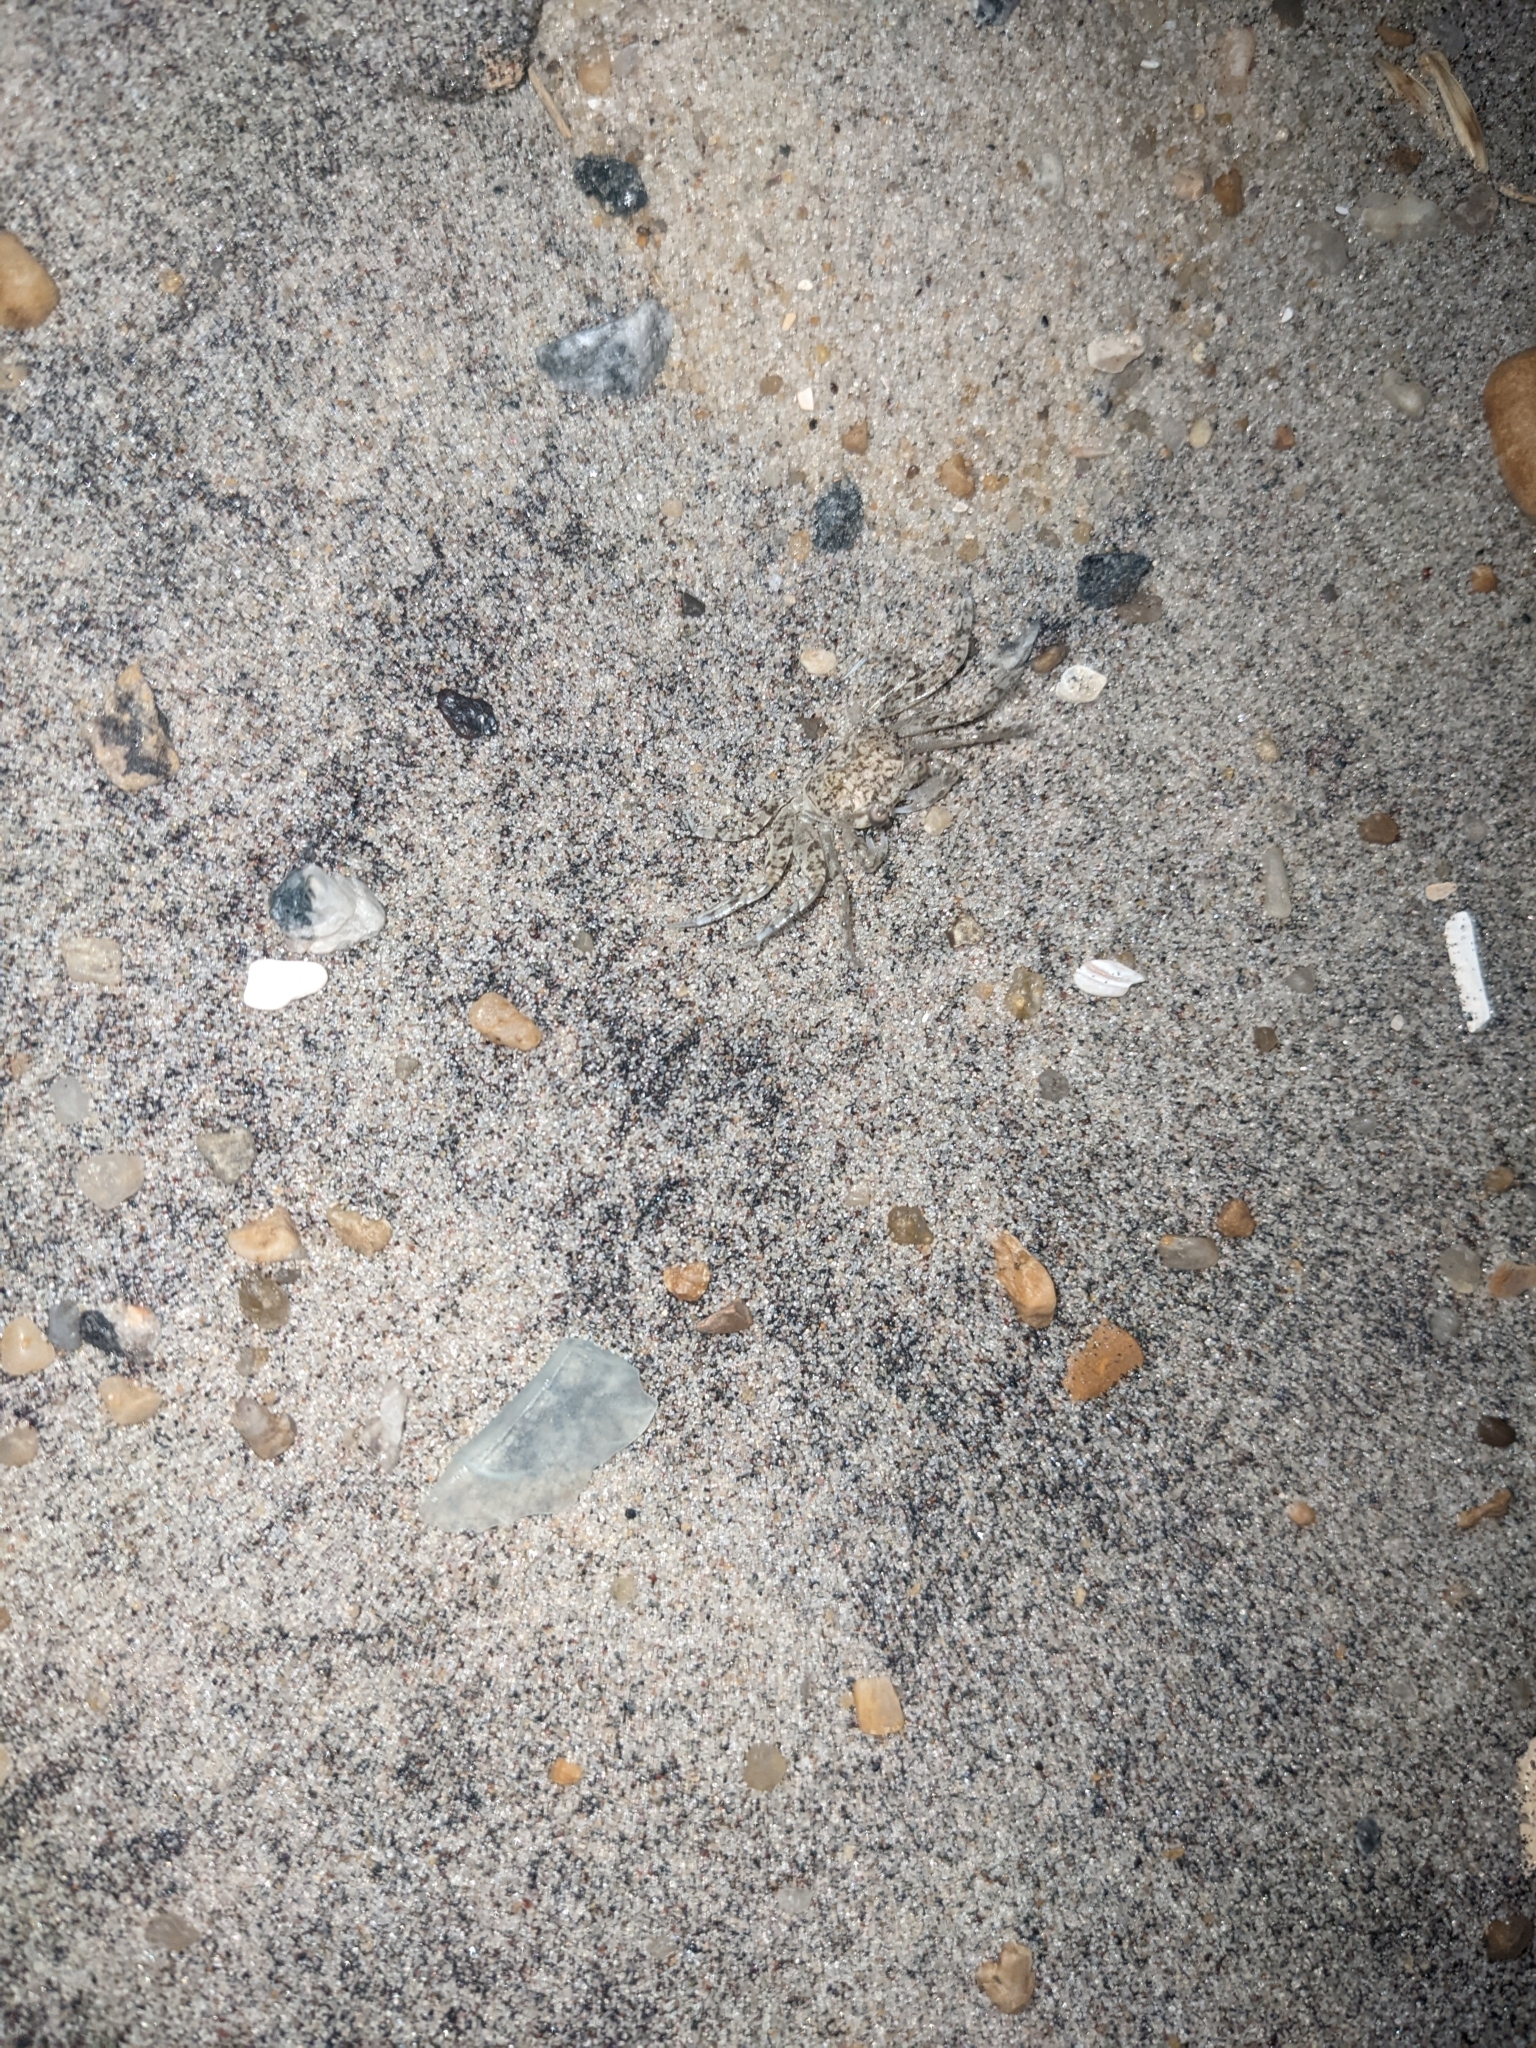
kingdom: Animalia
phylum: Arthropoda
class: Malacostraca
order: Decapoda
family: Ocypodidae
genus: Ocypode
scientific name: Ocypode quadrata
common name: Ghost crab
